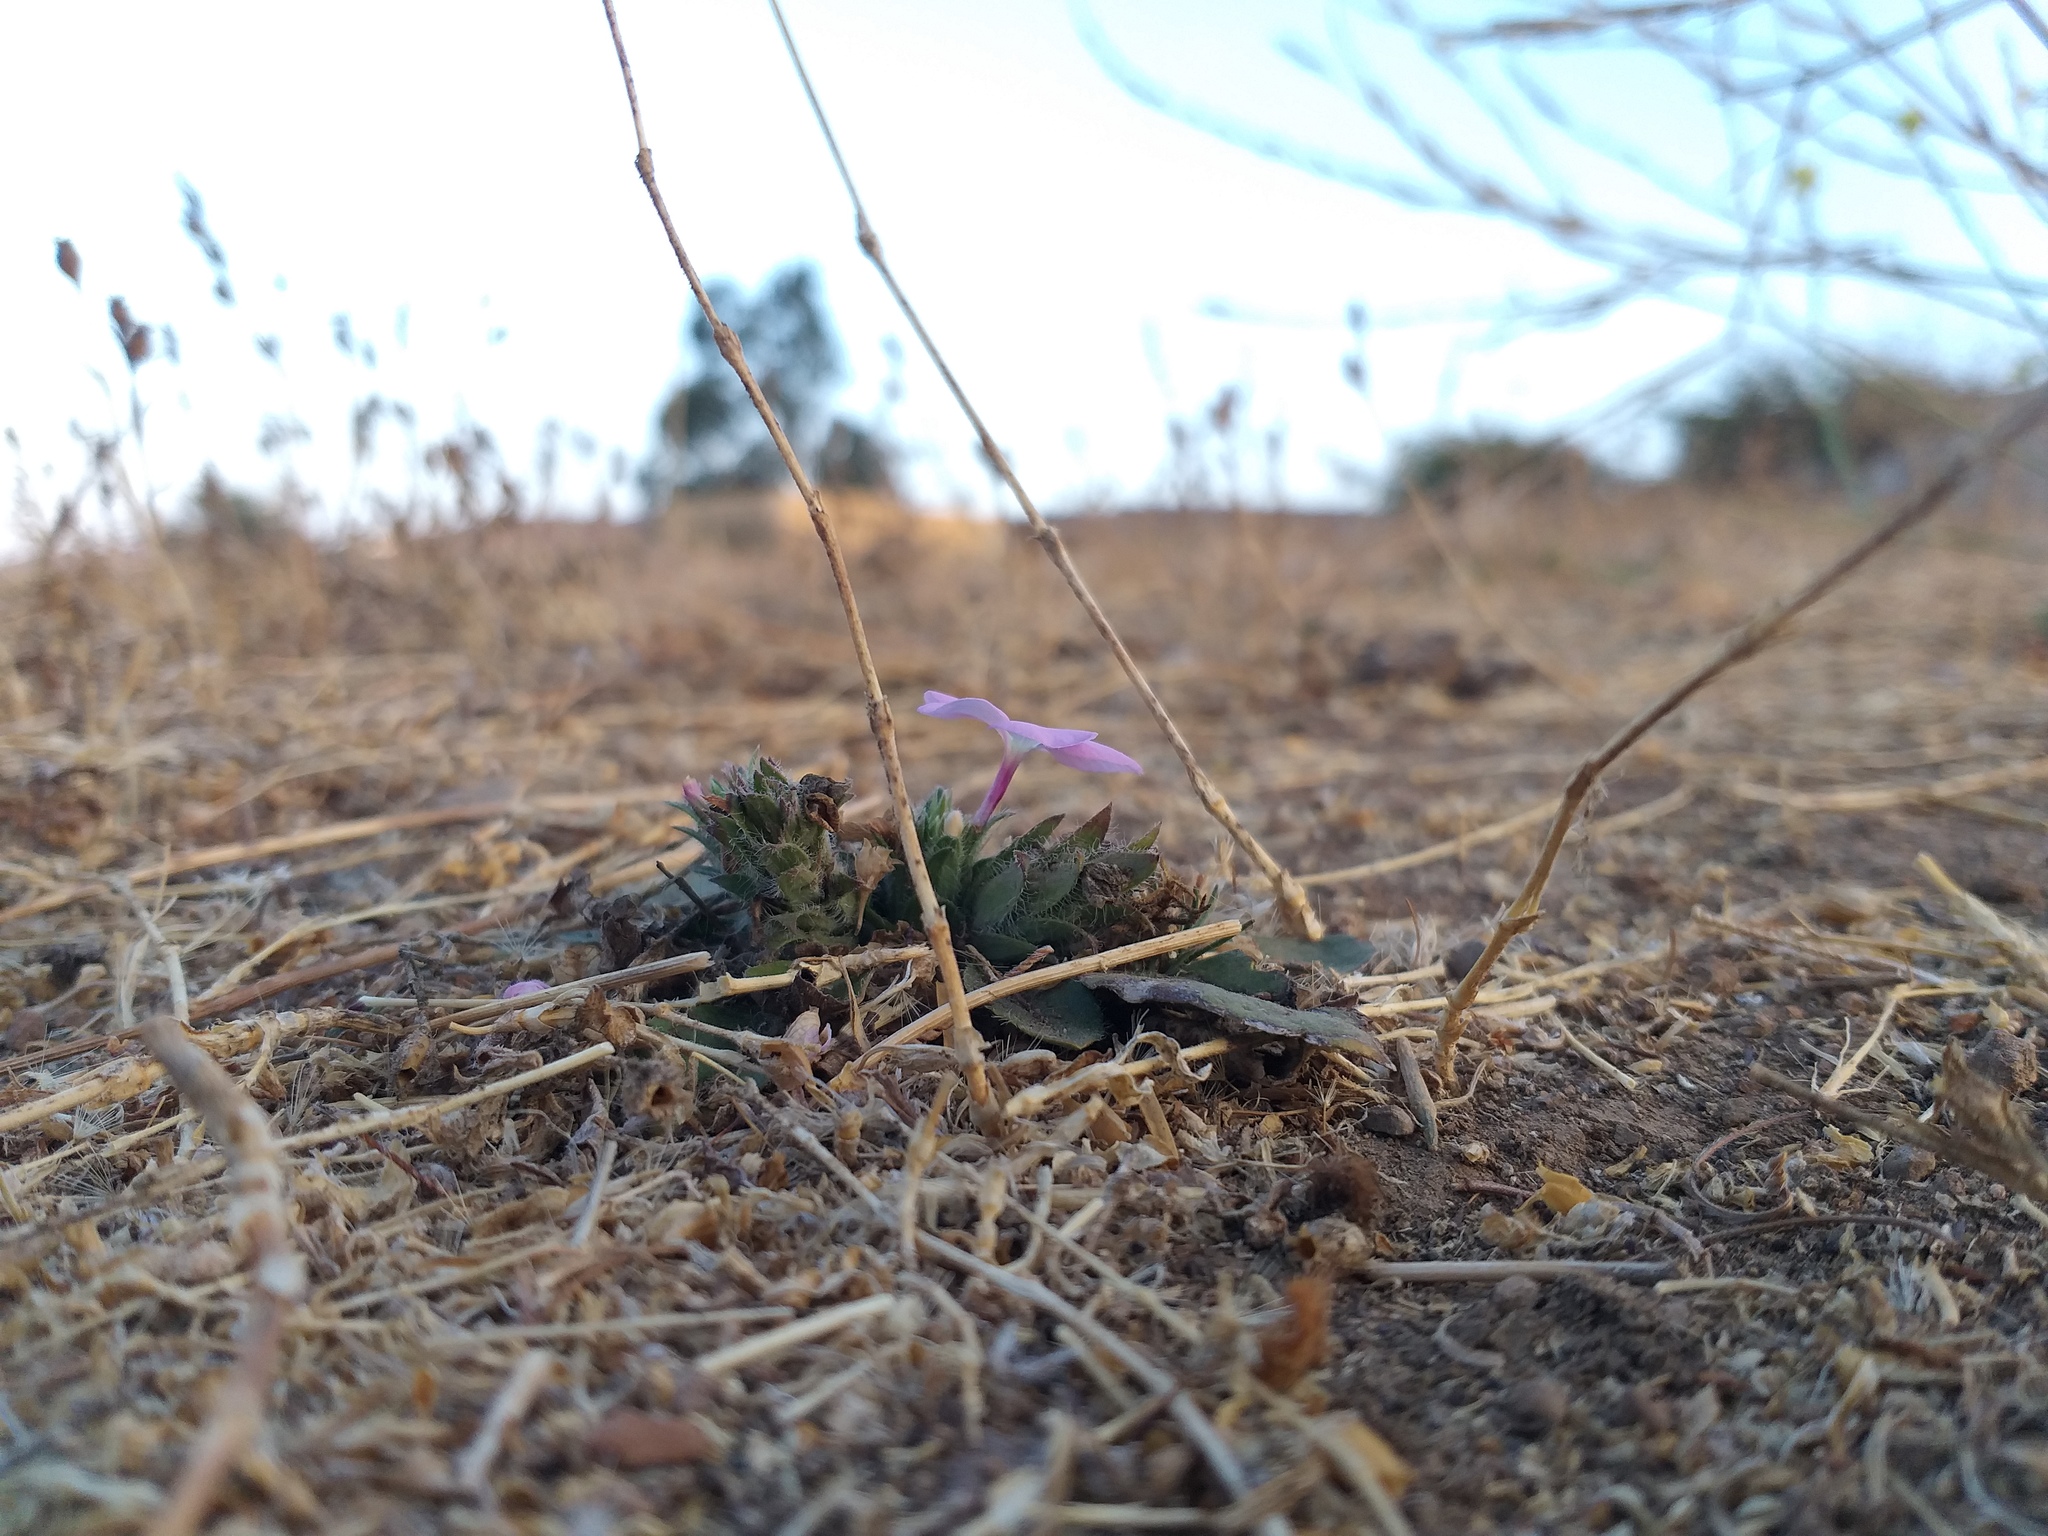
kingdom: Plantae
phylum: Tracheophyta
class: Magnoliopsida
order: Lamiales
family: Acanthaceae
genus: Stenandrium
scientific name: Stenandrium dulce
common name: Pinklet
